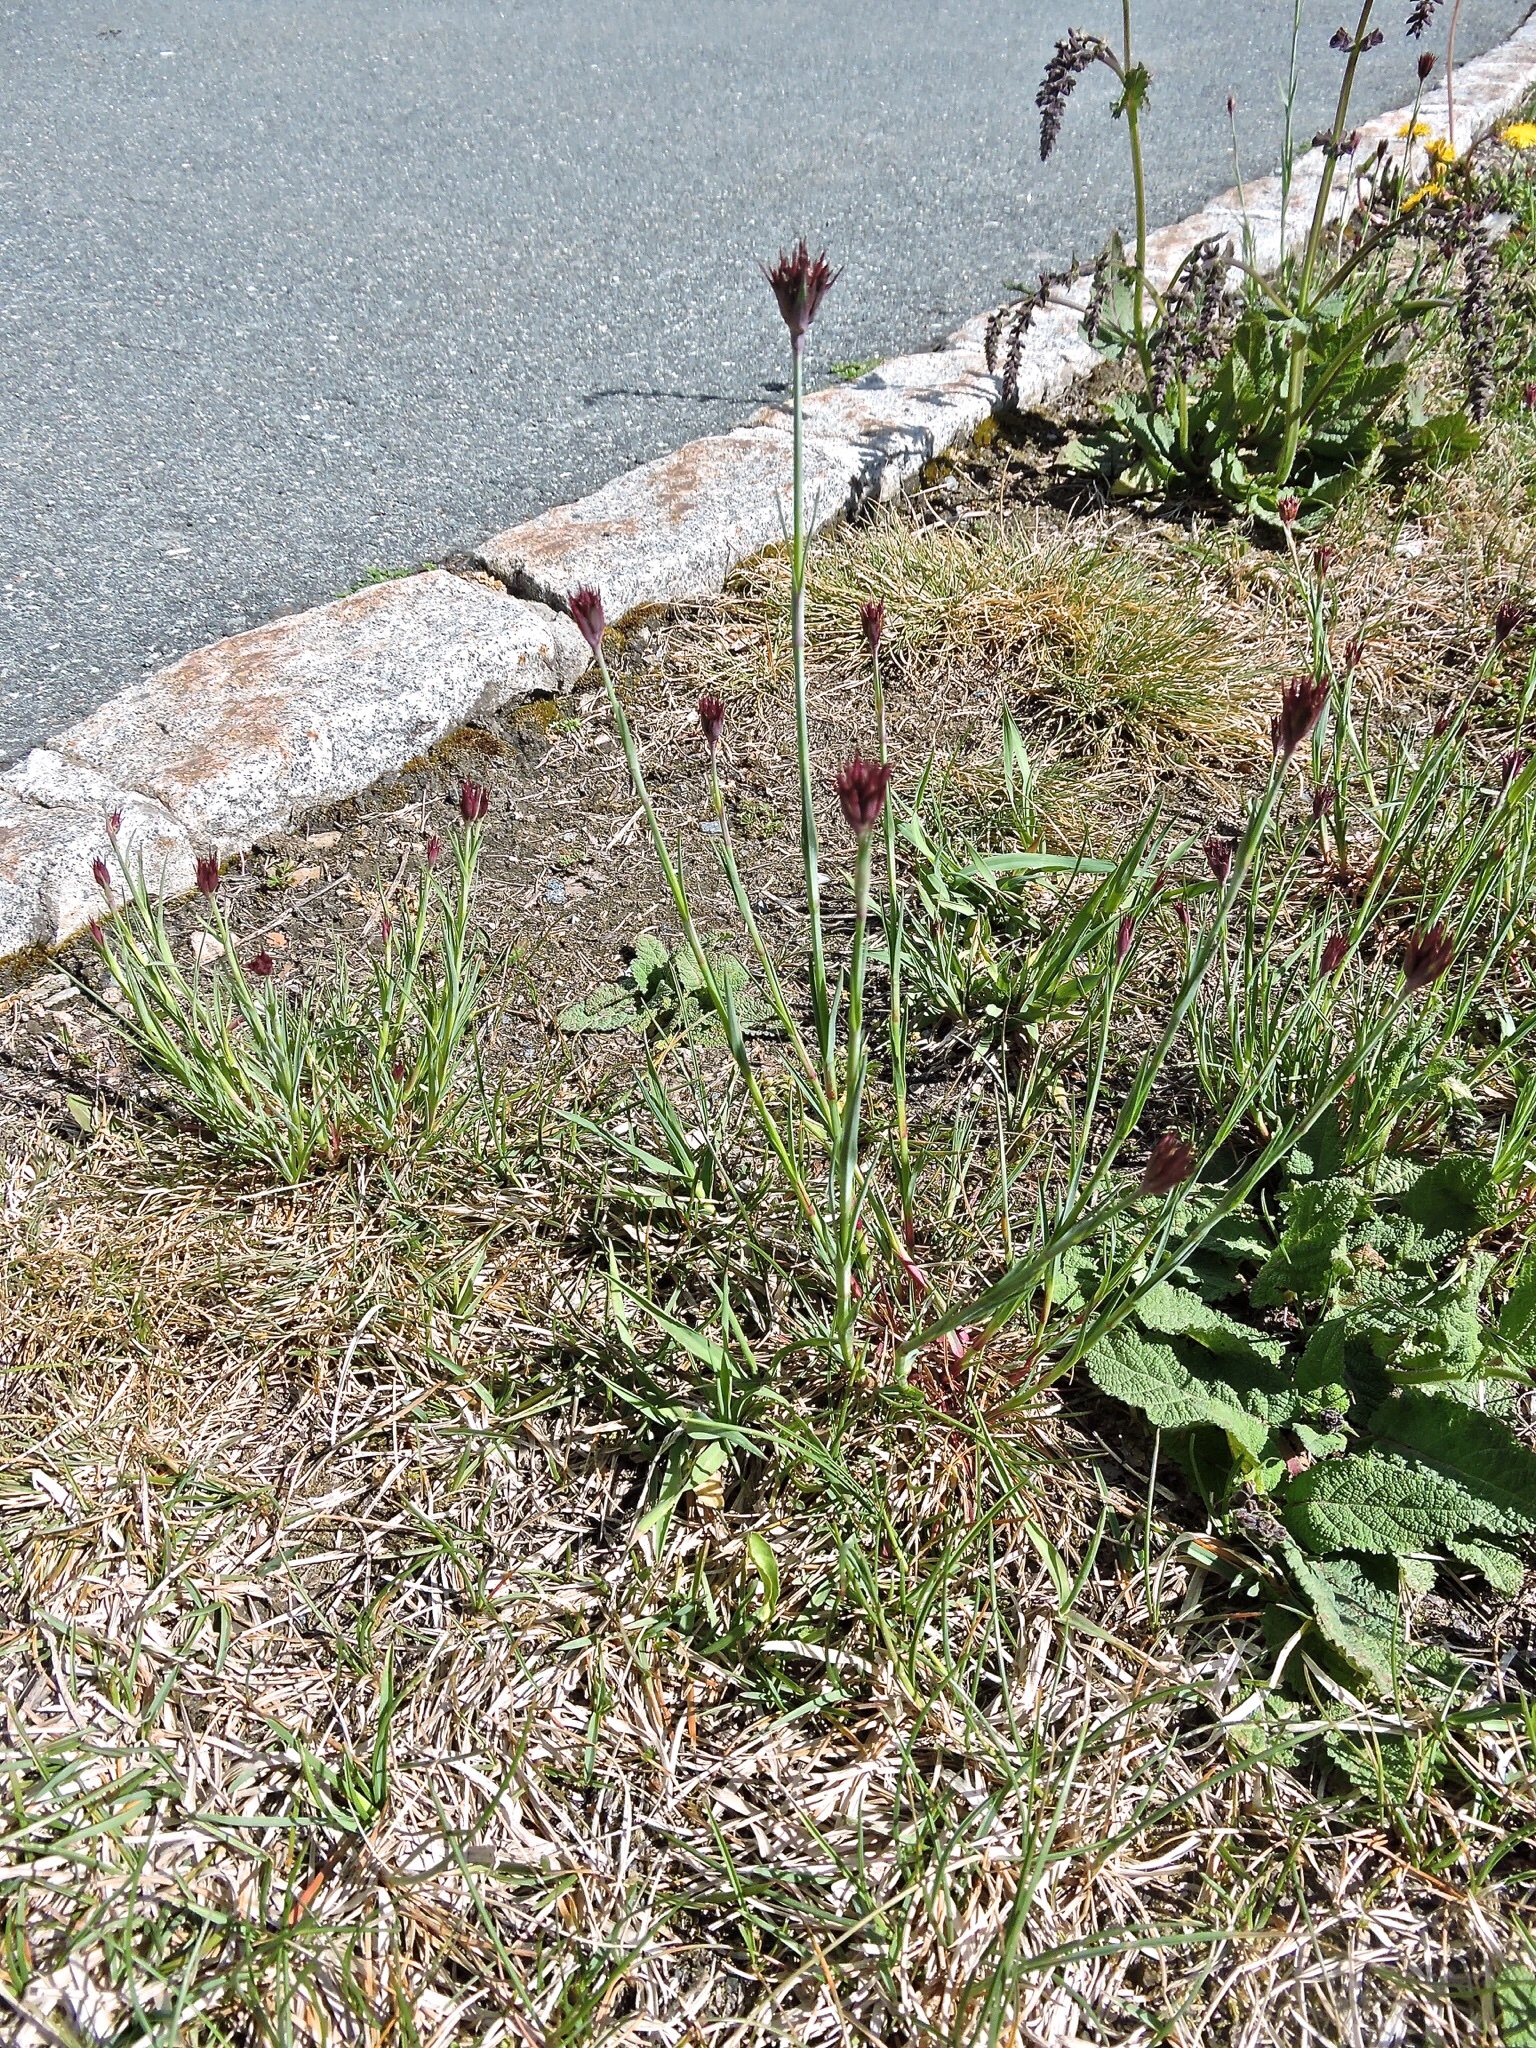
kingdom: Plantae
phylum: Tracheophyta
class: Magnoliopsida
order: Caryophyllales
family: Caryophyllaceae
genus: Dianthus
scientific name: Dianthus carthusianorum
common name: Carthusian pink
